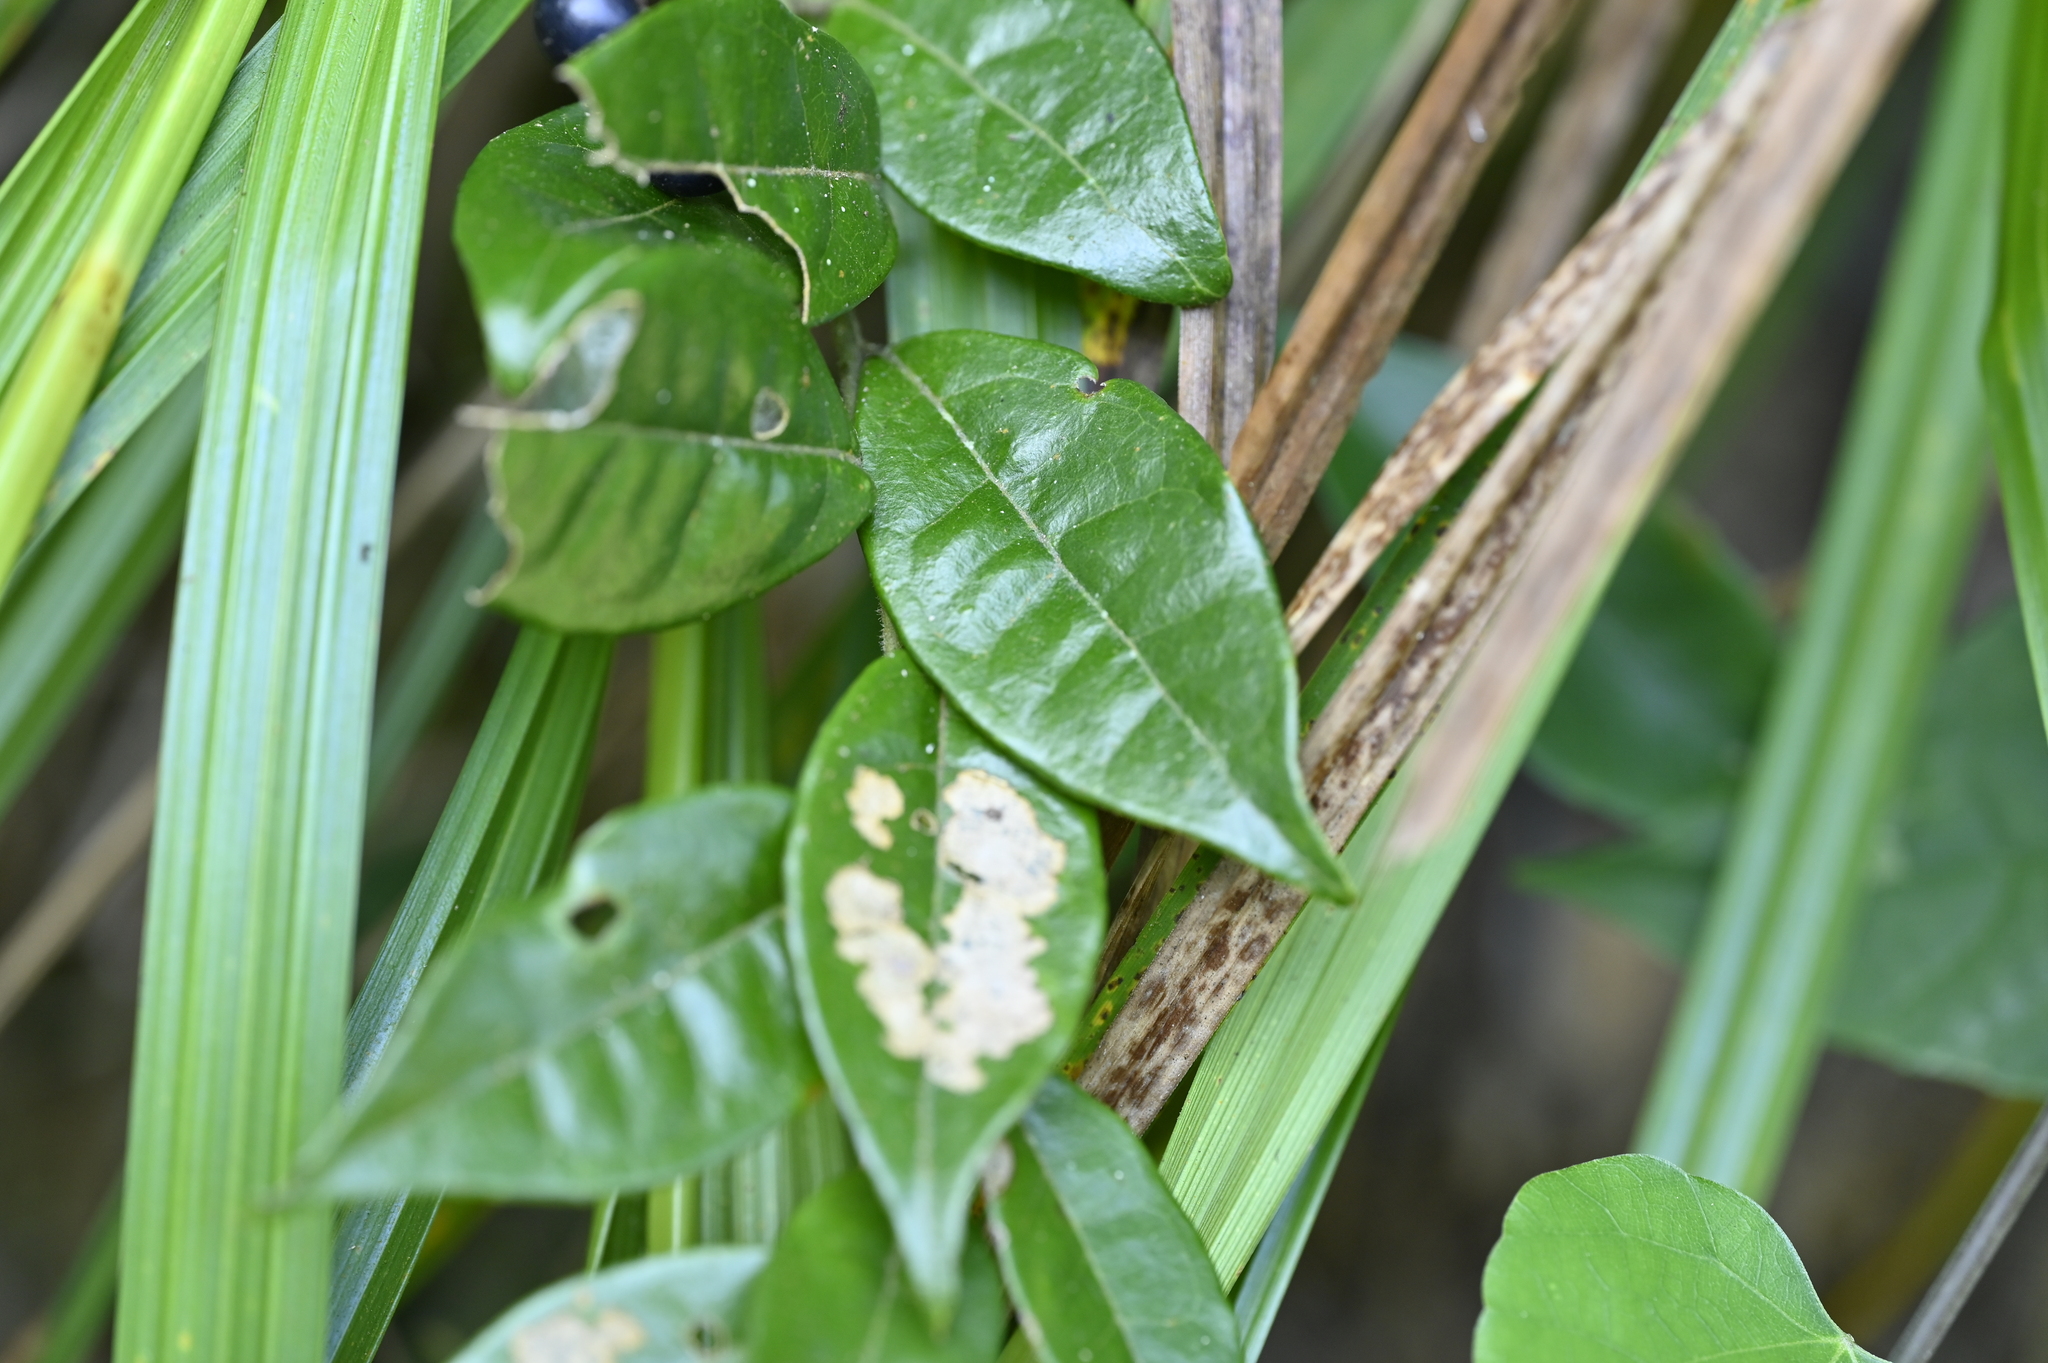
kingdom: Plantae
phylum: Tracheophyta
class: Magnoliopsida
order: Proteales
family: Sabiaceae
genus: Sabia
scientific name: Sabia swinhoei
